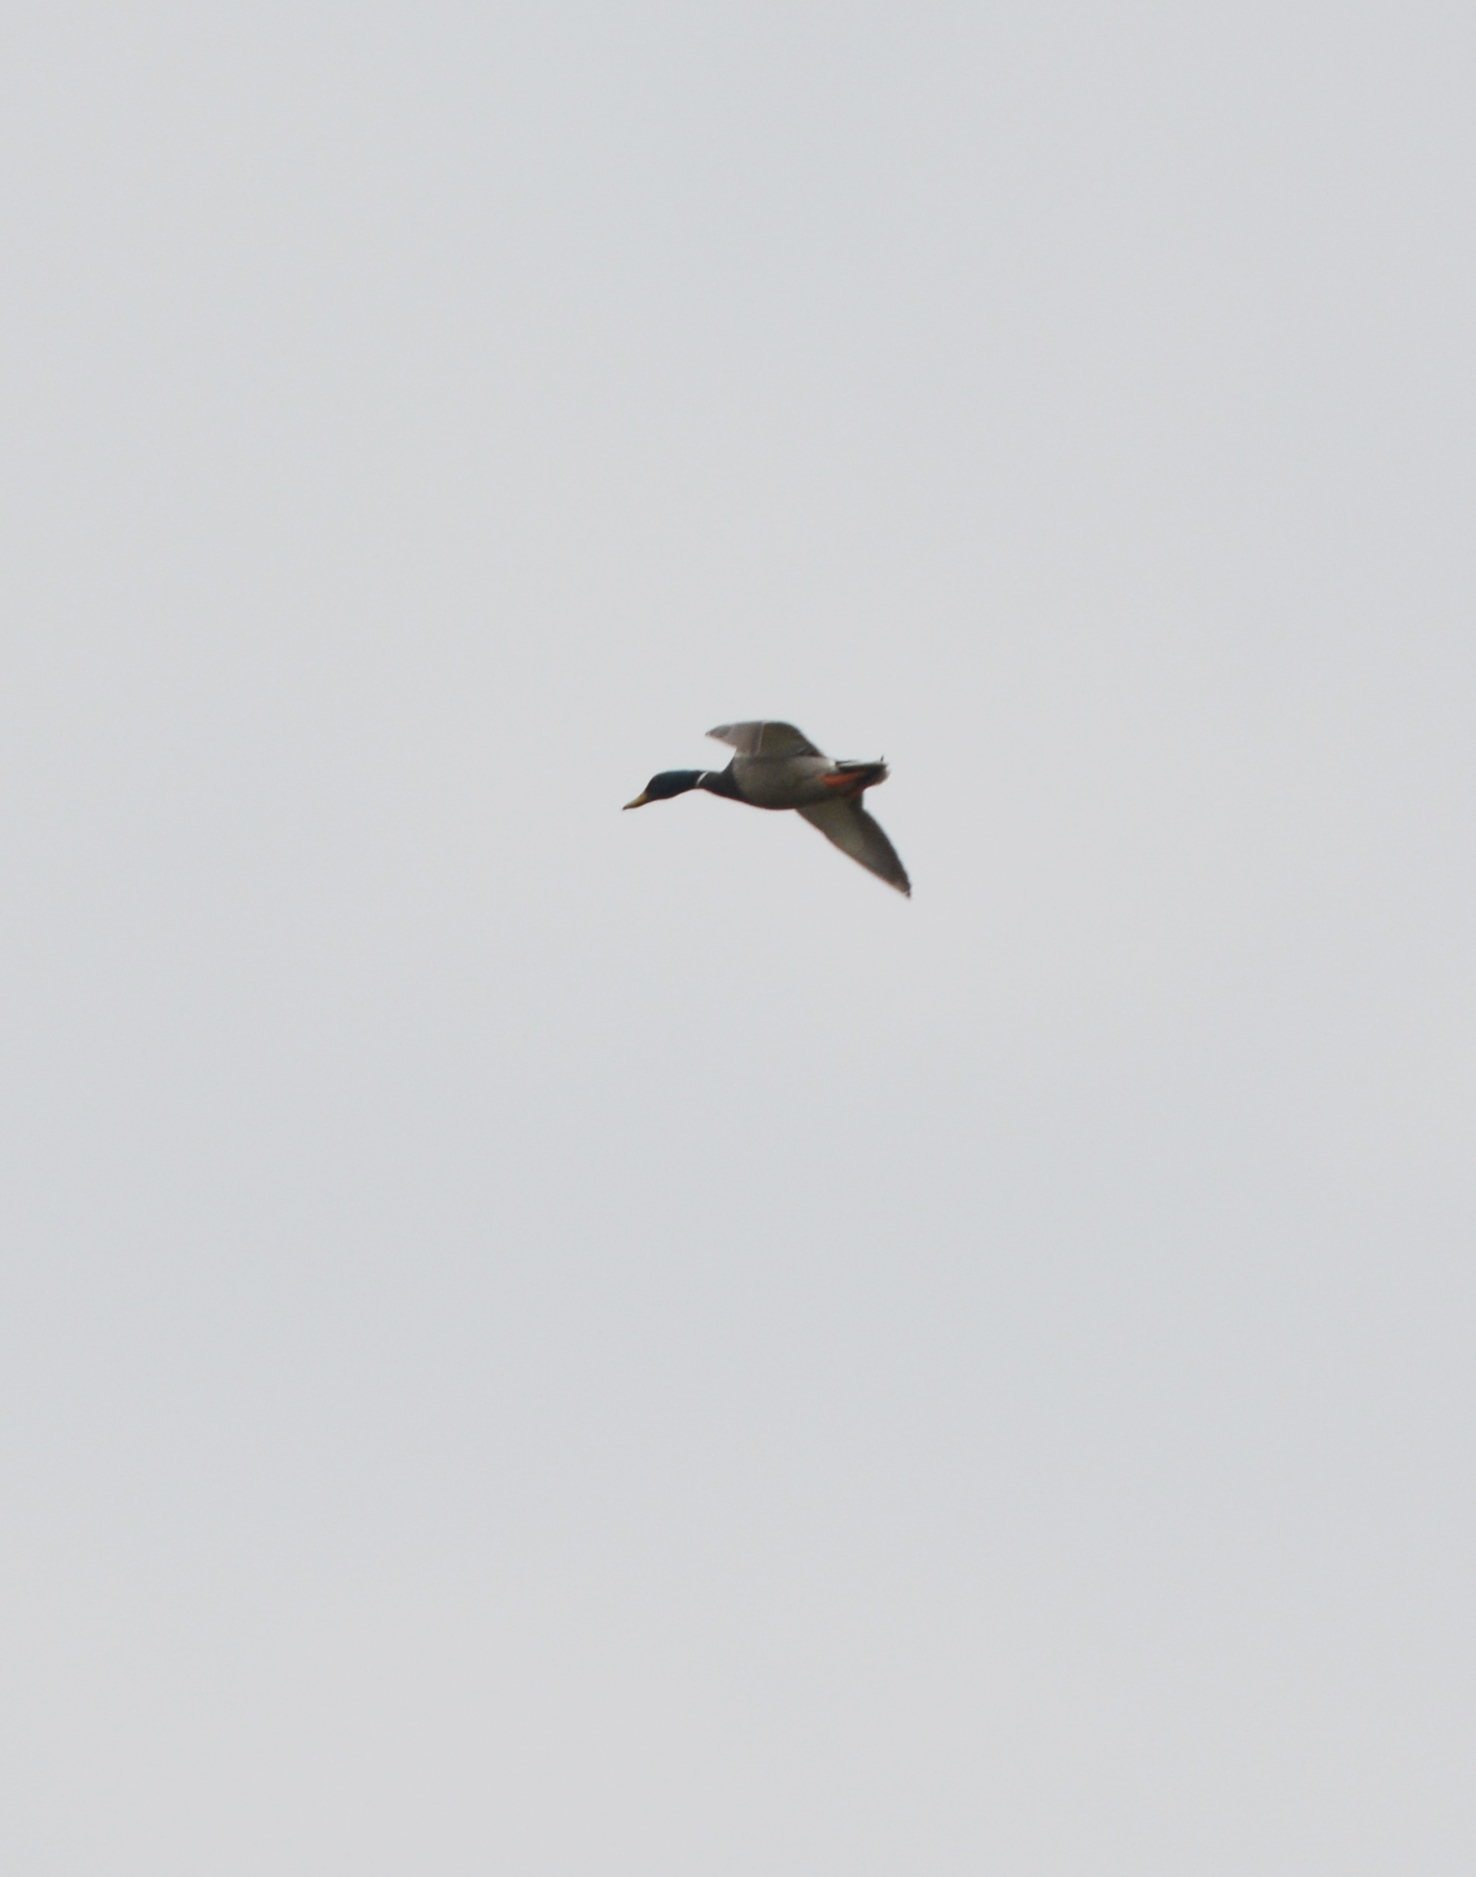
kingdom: Animalia
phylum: Chordata
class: Aves
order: Anseriformes
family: Anatidae
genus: Anas
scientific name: Anas platyrhynchos
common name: Mallard
